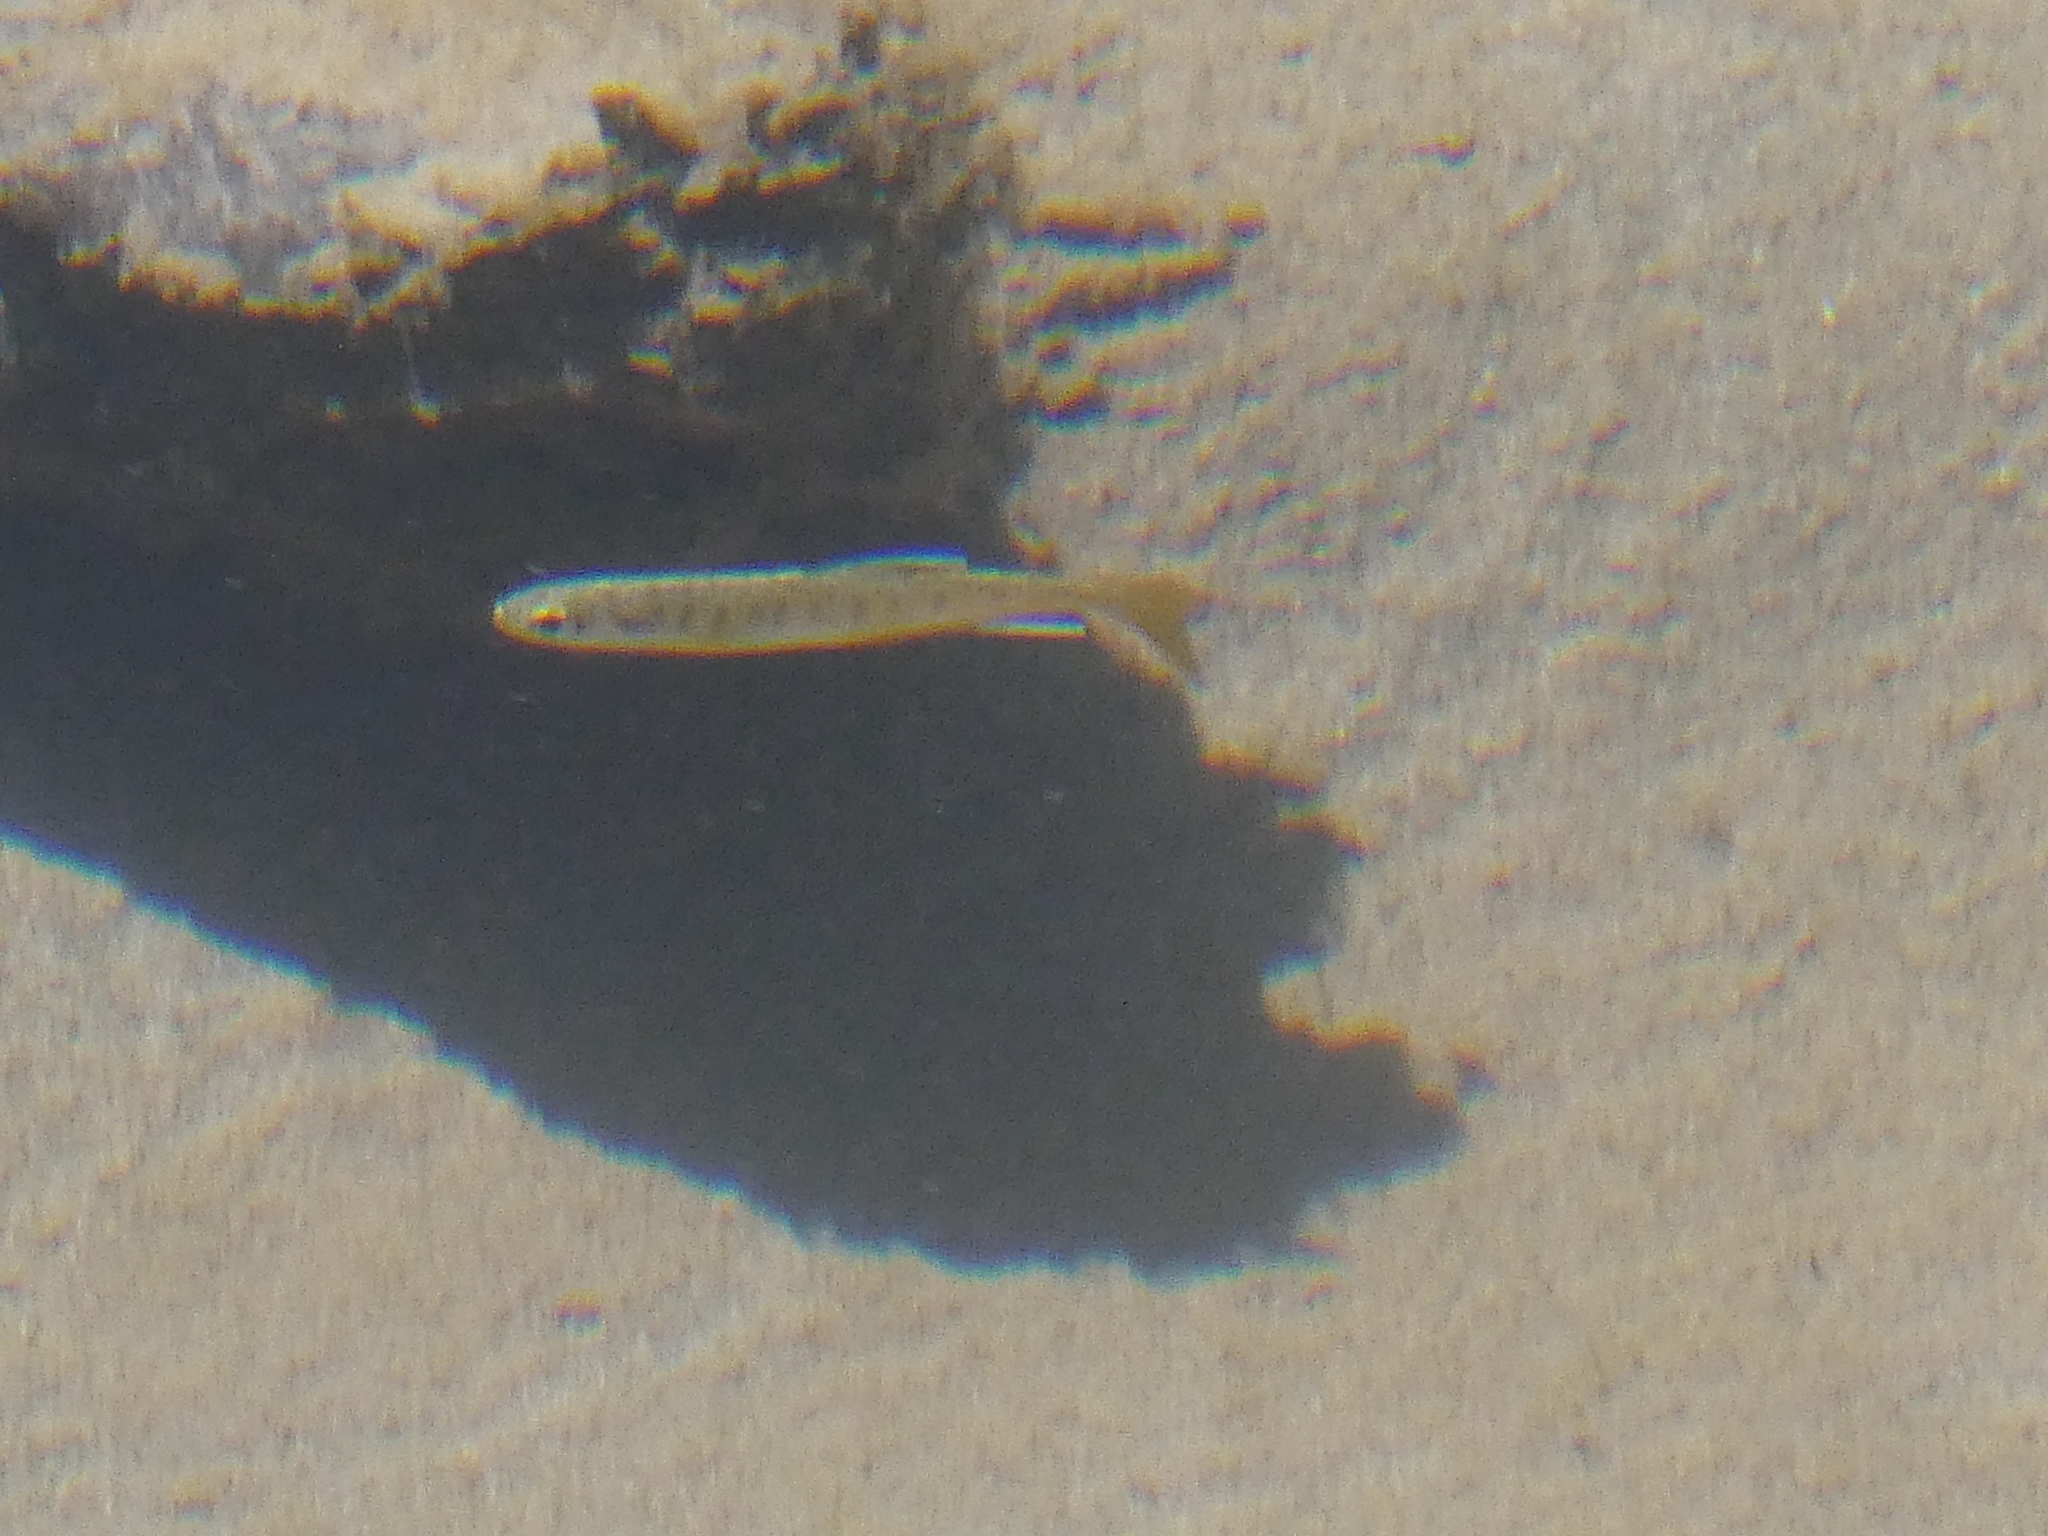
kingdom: Animalia
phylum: Chordata
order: Salmoniformes
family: Salmonidae
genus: Oncorhynchus
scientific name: Oncorhynchus kisutch
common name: Coho salmon
